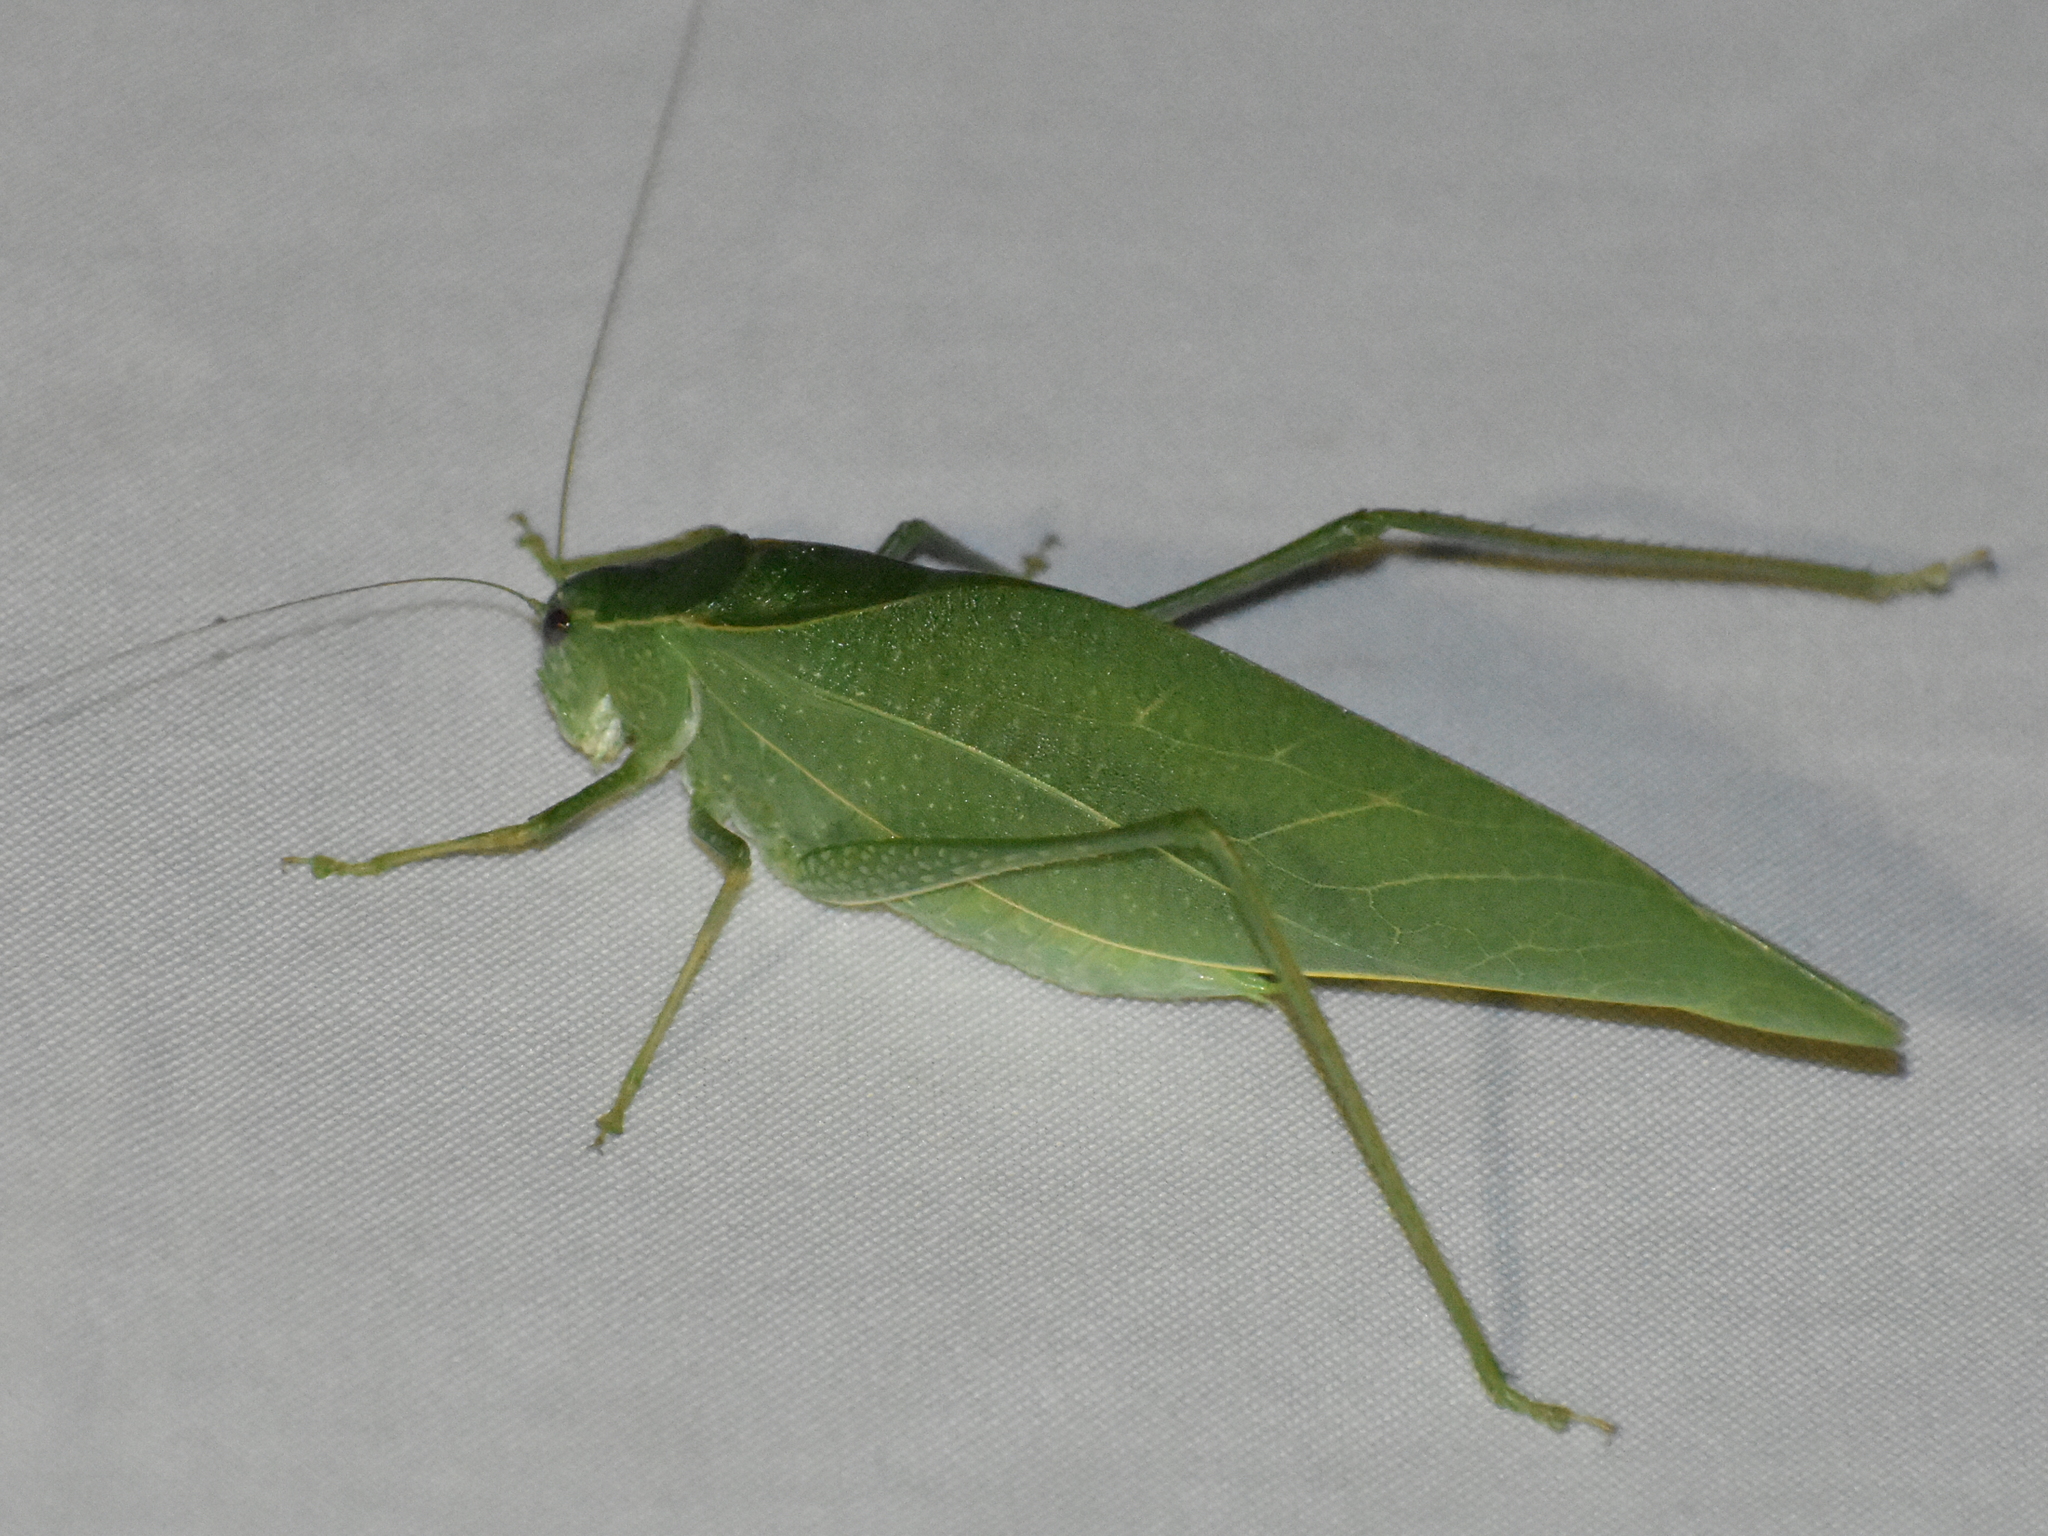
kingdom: Animalia
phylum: Arthropoda
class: Insecta
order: Orthoptera
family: Tettigoniidae
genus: Microcentrum
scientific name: Microcentrum rhombifolium
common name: Broad-winged katydid
